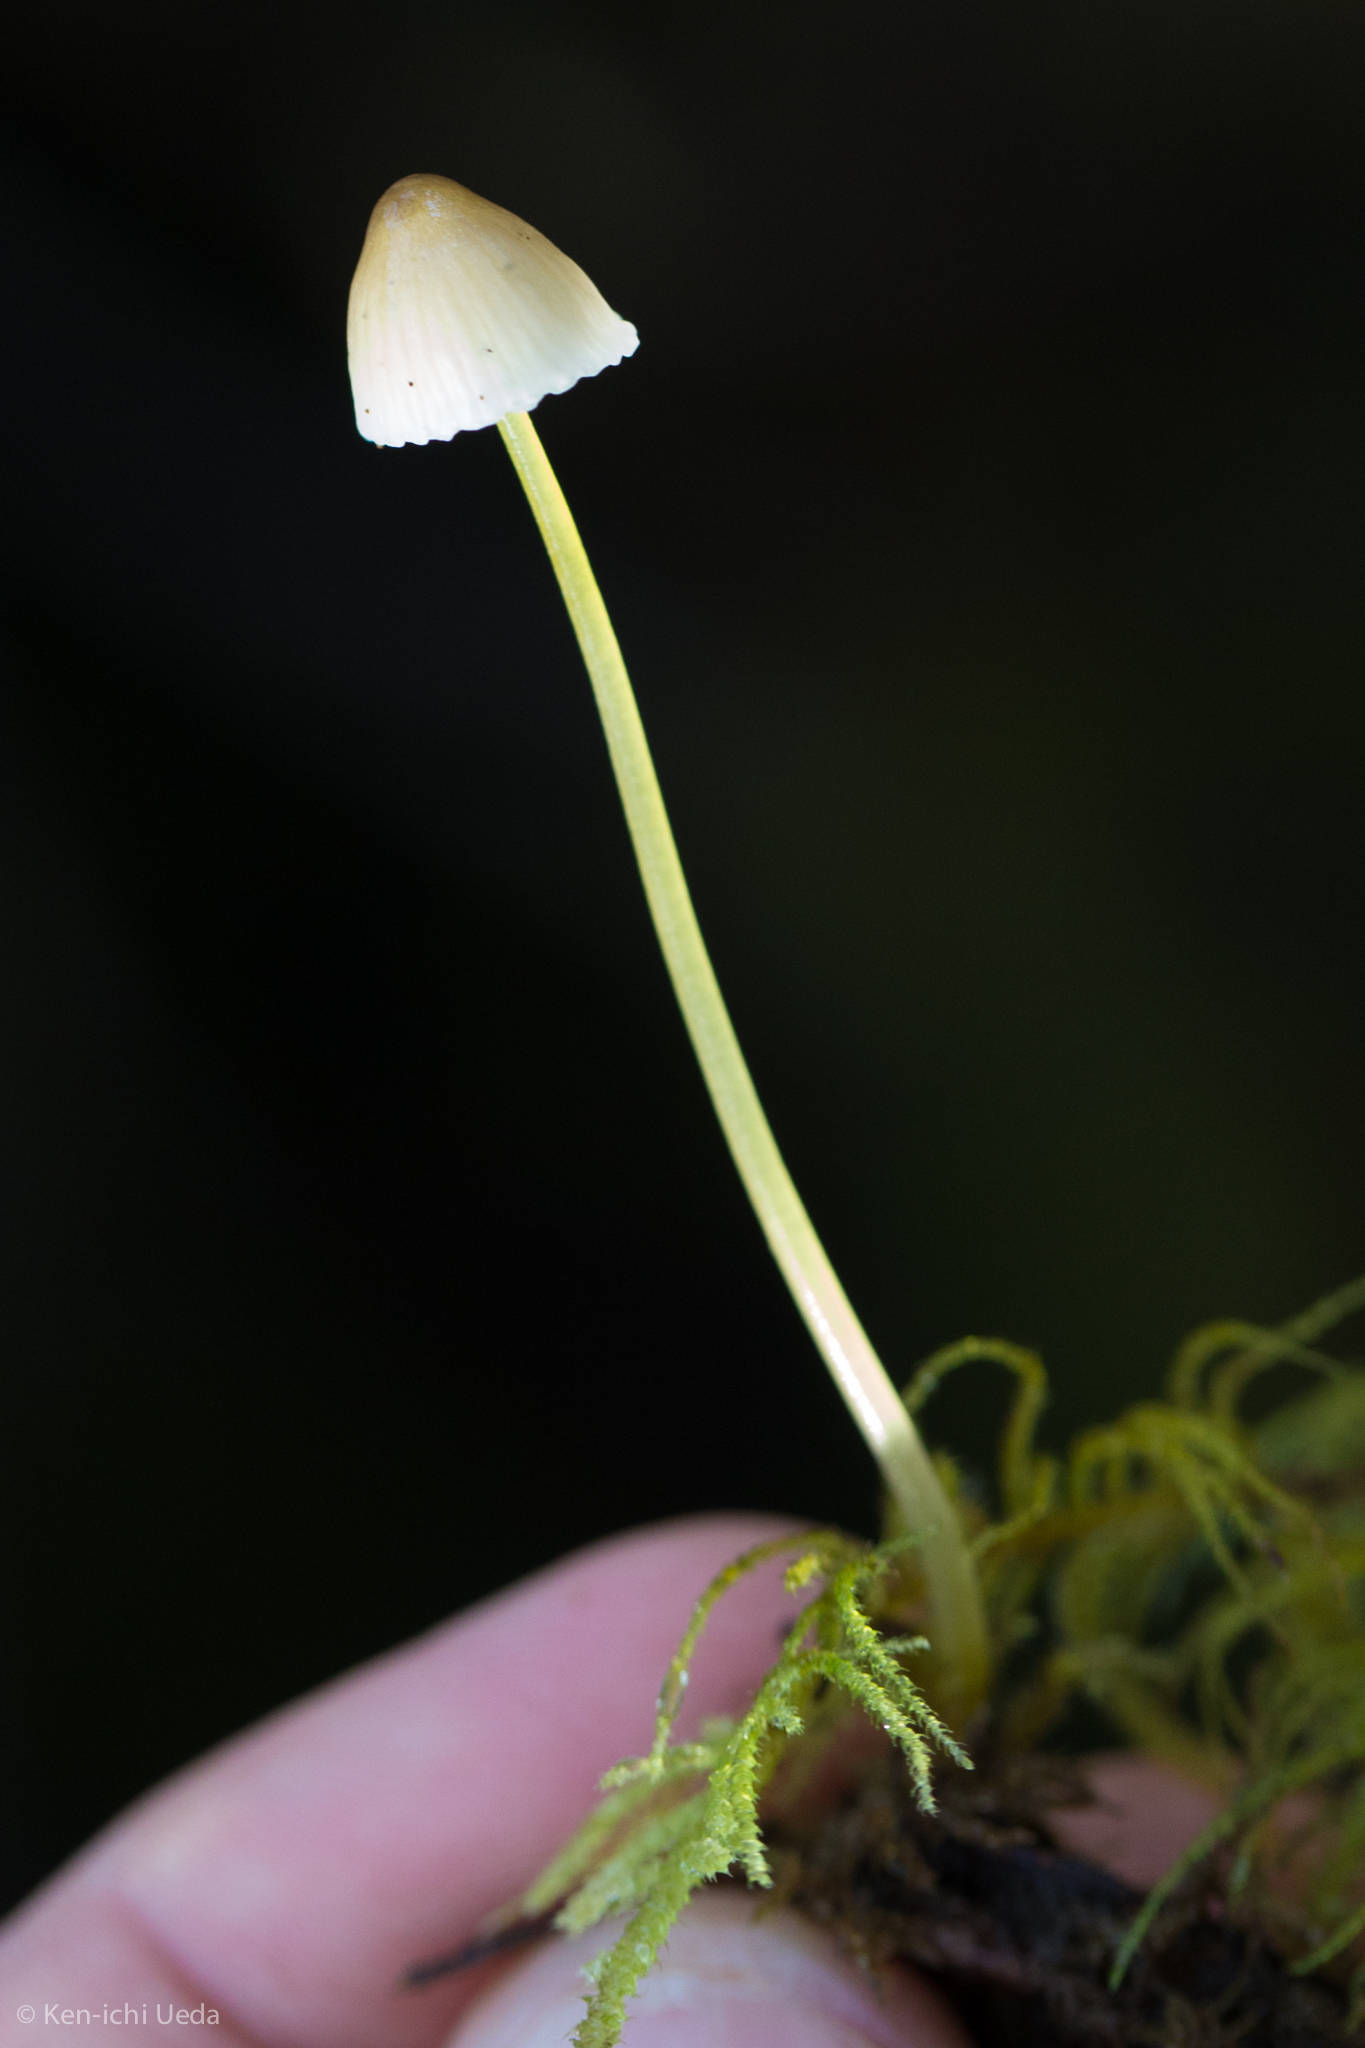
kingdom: Fungi
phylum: Basidiomycota
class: Agaricomycetes
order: Agaricales
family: Mycenaceae
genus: Mycena
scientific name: Mycena epipterygia
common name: Yellowleg bonnet
